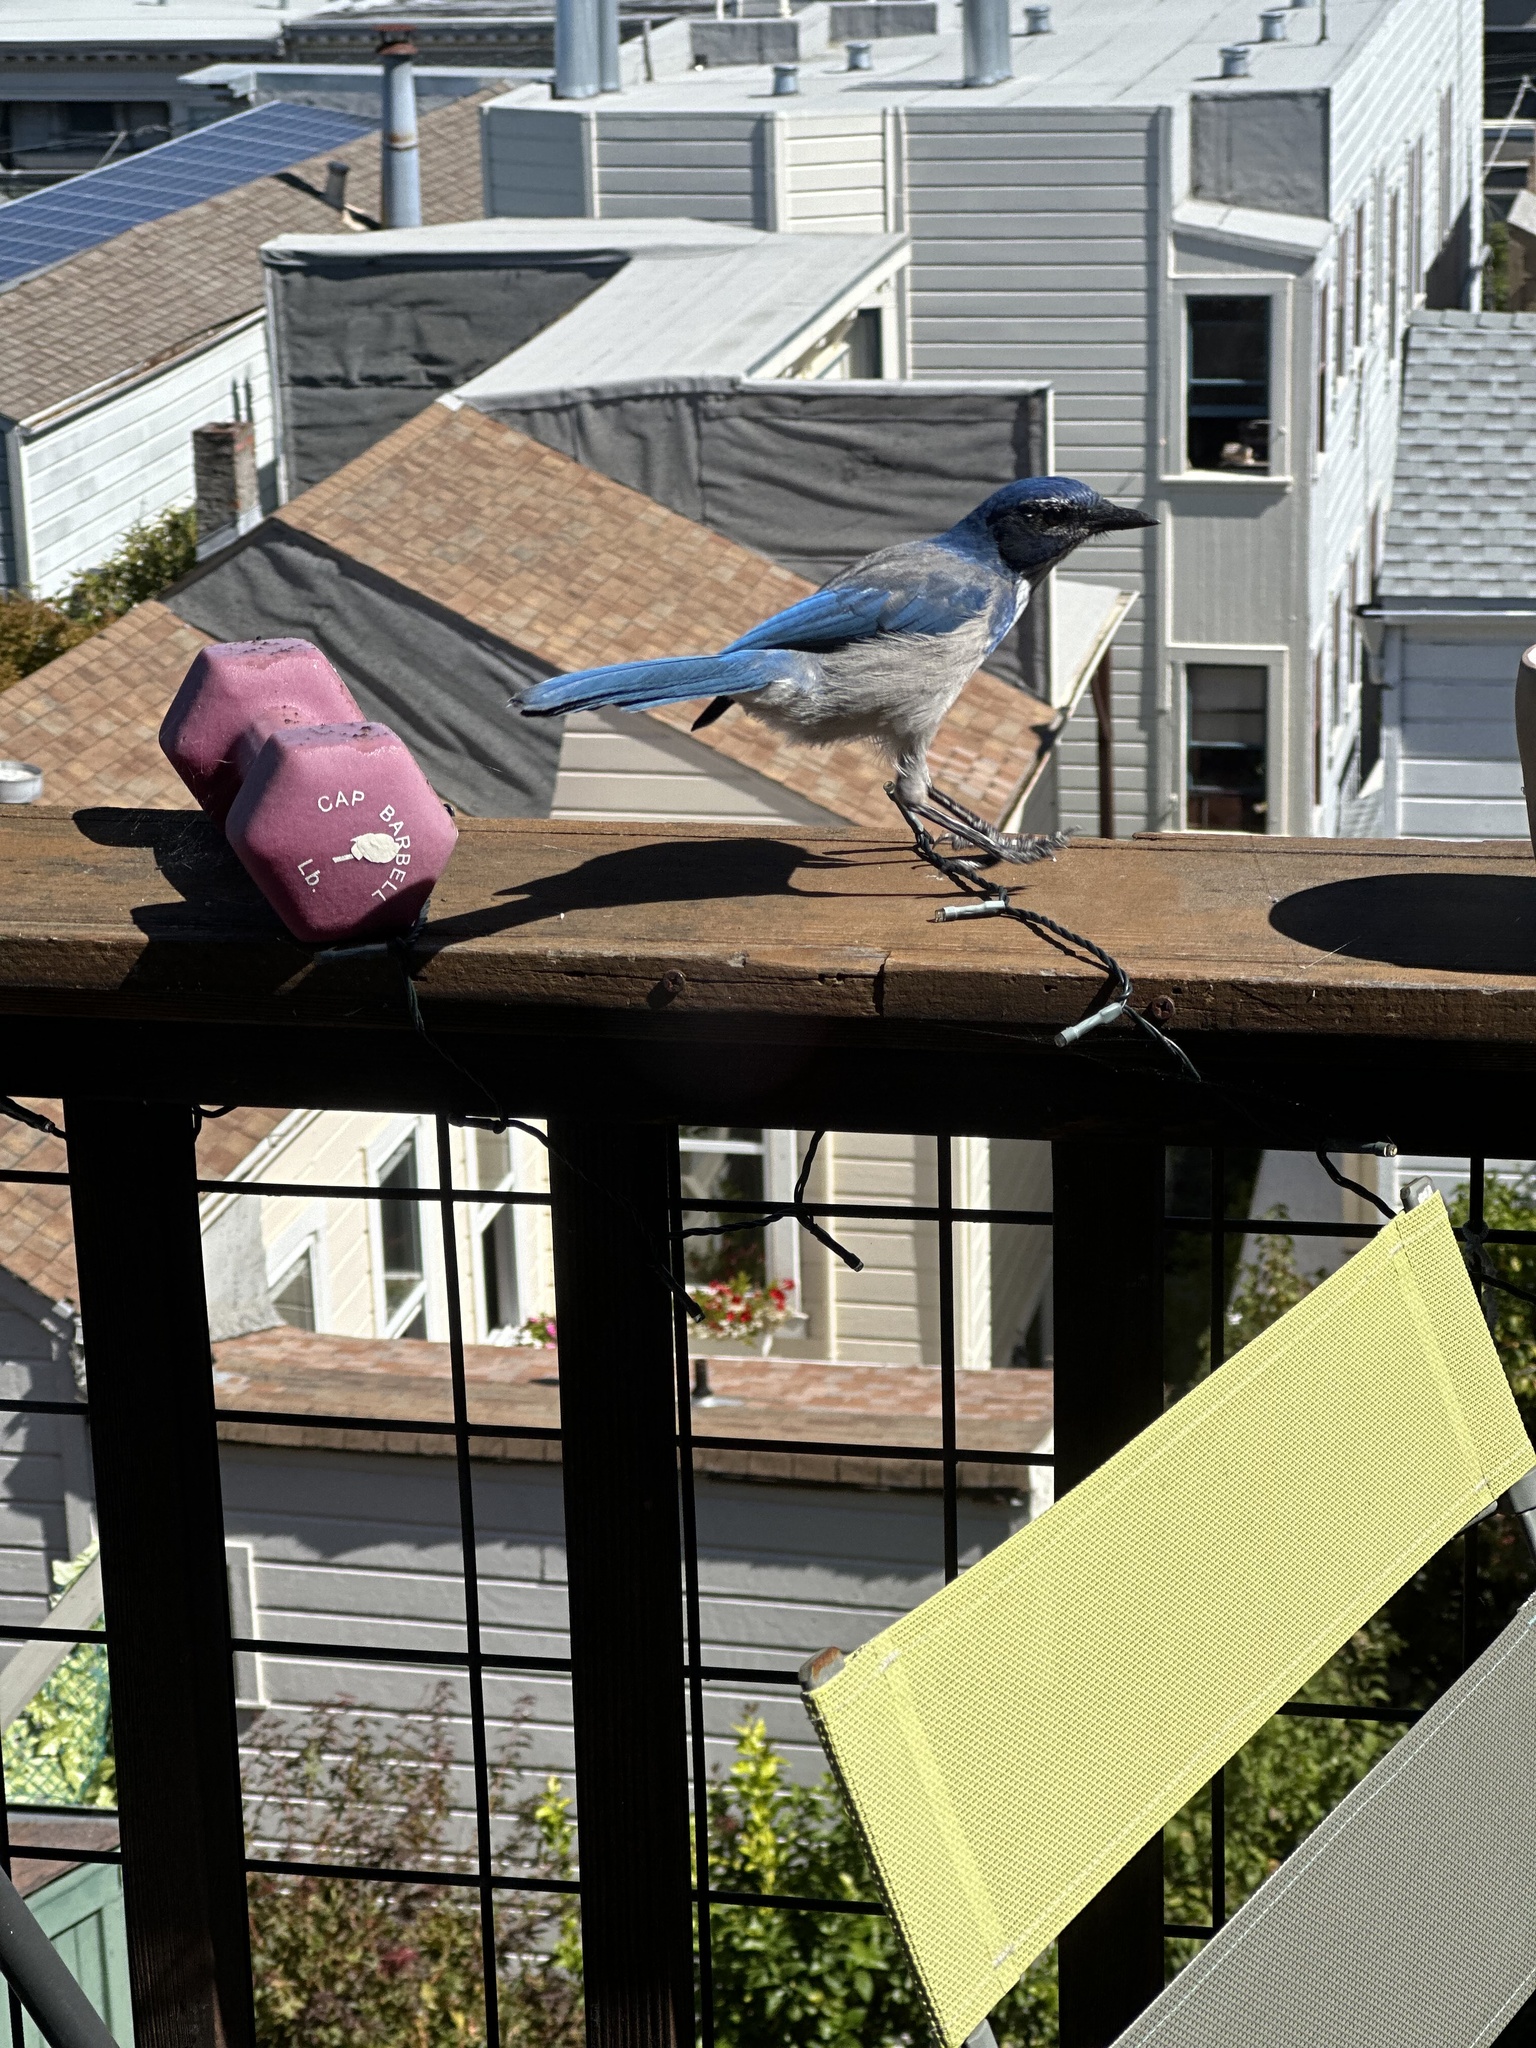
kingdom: Animalia
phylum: Chordata
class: Aves
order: Passeriformes
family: Corvidae
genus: Aphelocoma
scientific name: Aphelocoma californica
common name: California scrub-jay
